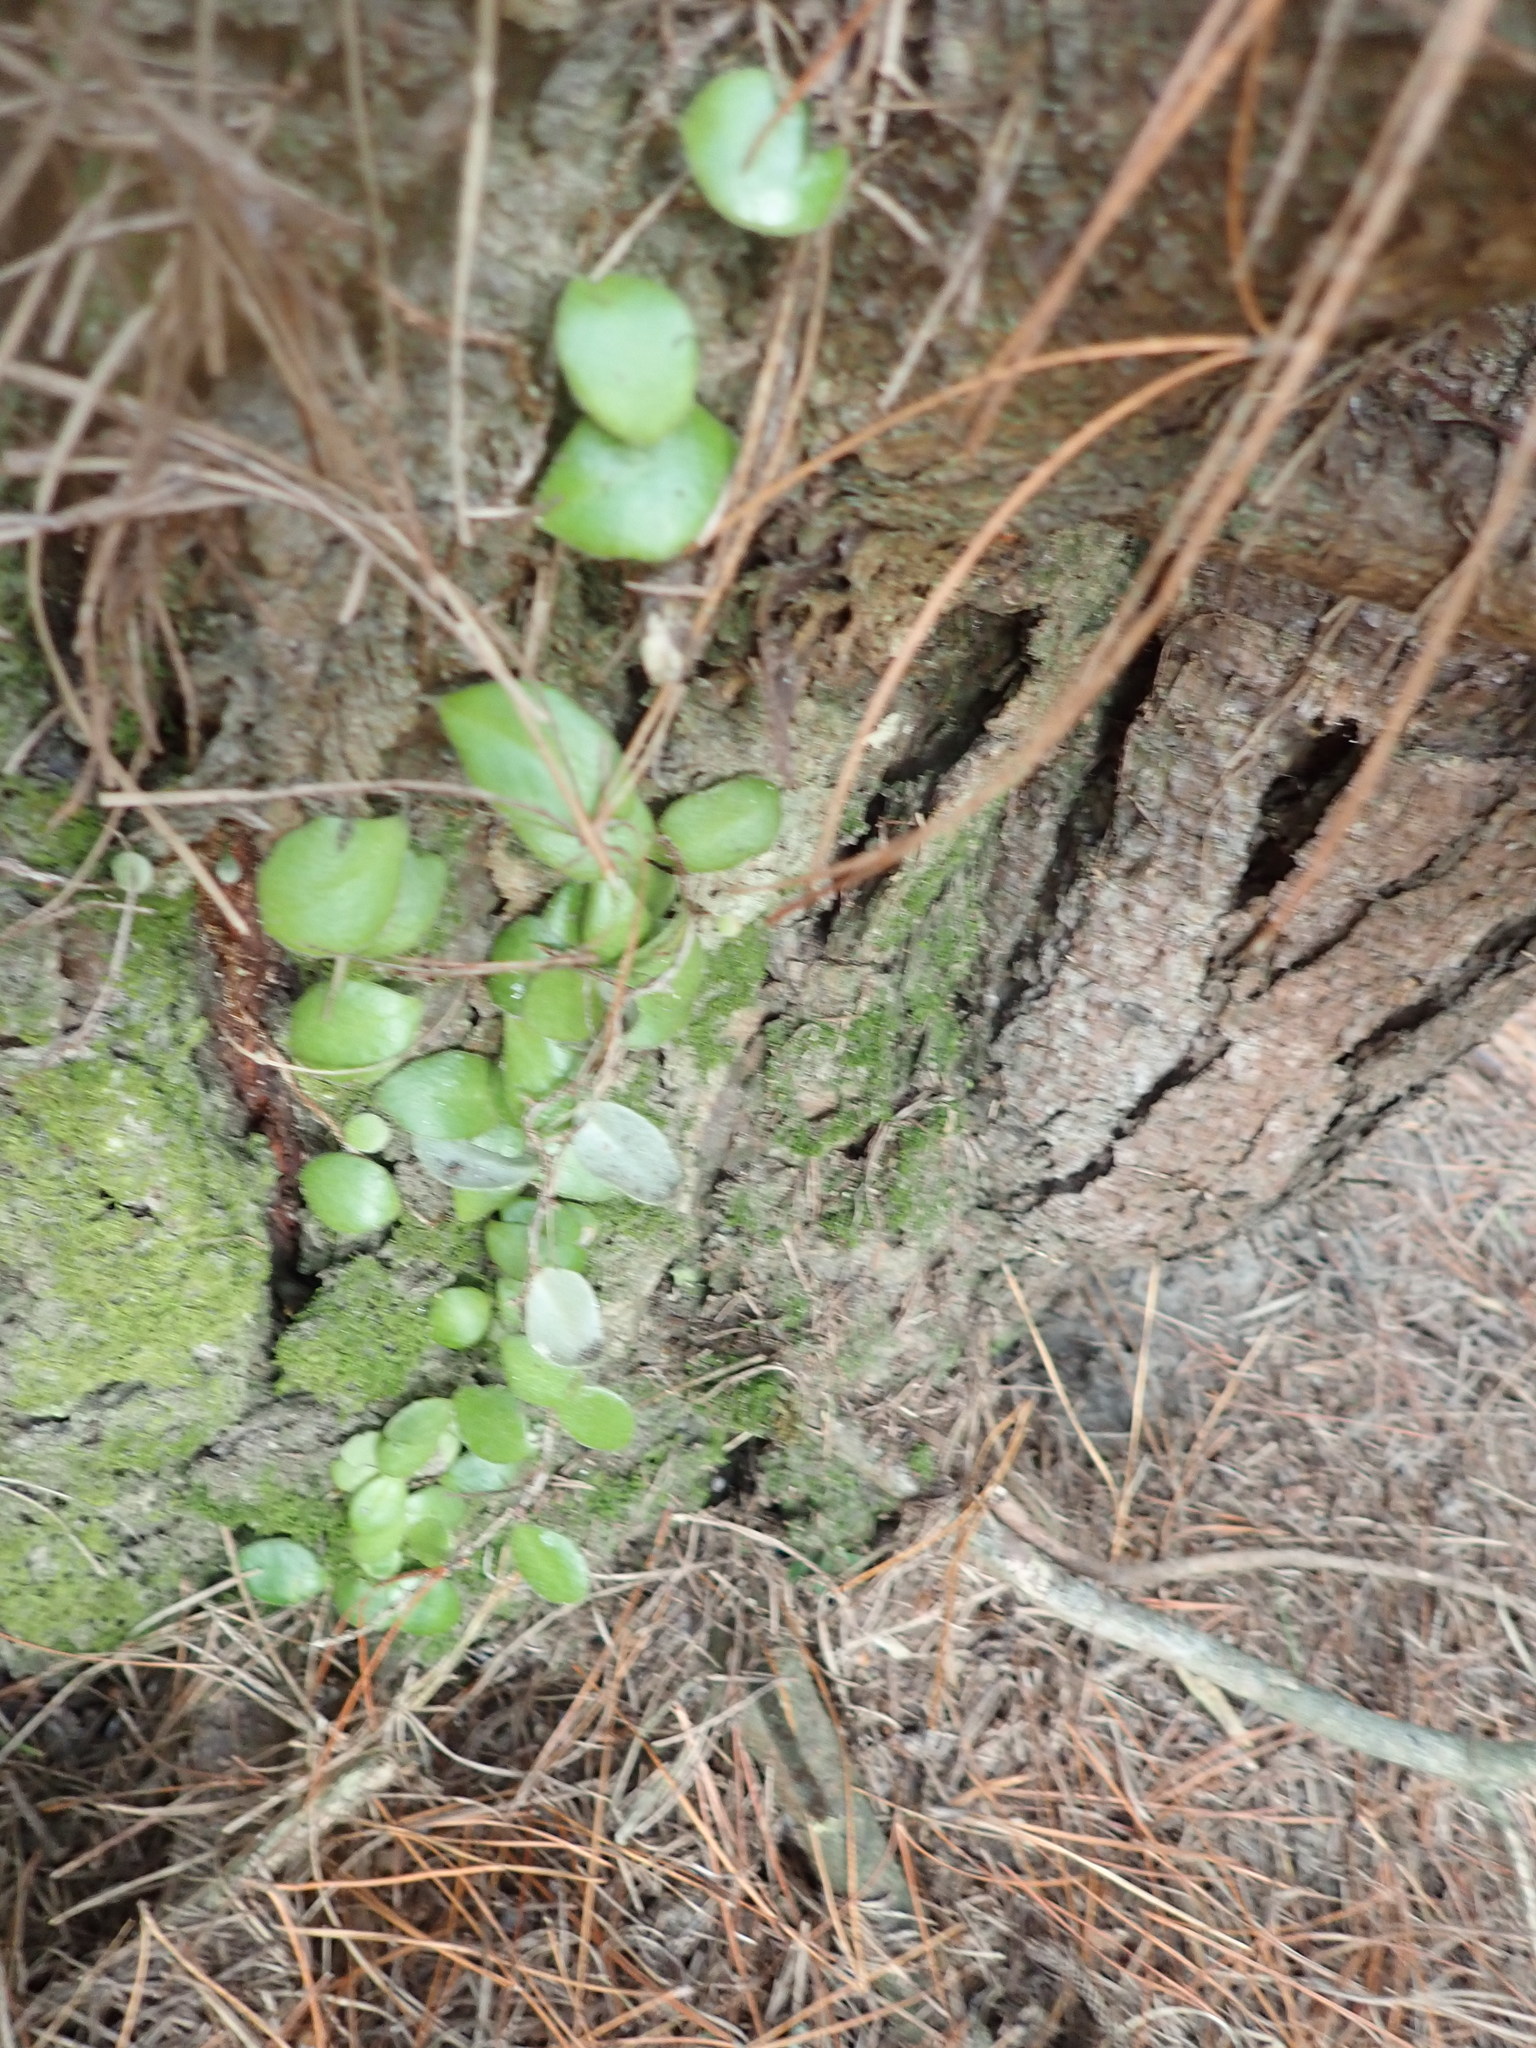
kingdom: Plantae
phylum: Tracheophyta
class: Polypodiopsida
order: Polypodiales
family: Polypodiaceae
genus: Pyrrosia
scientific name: Pyrrosia eleagnifolia
